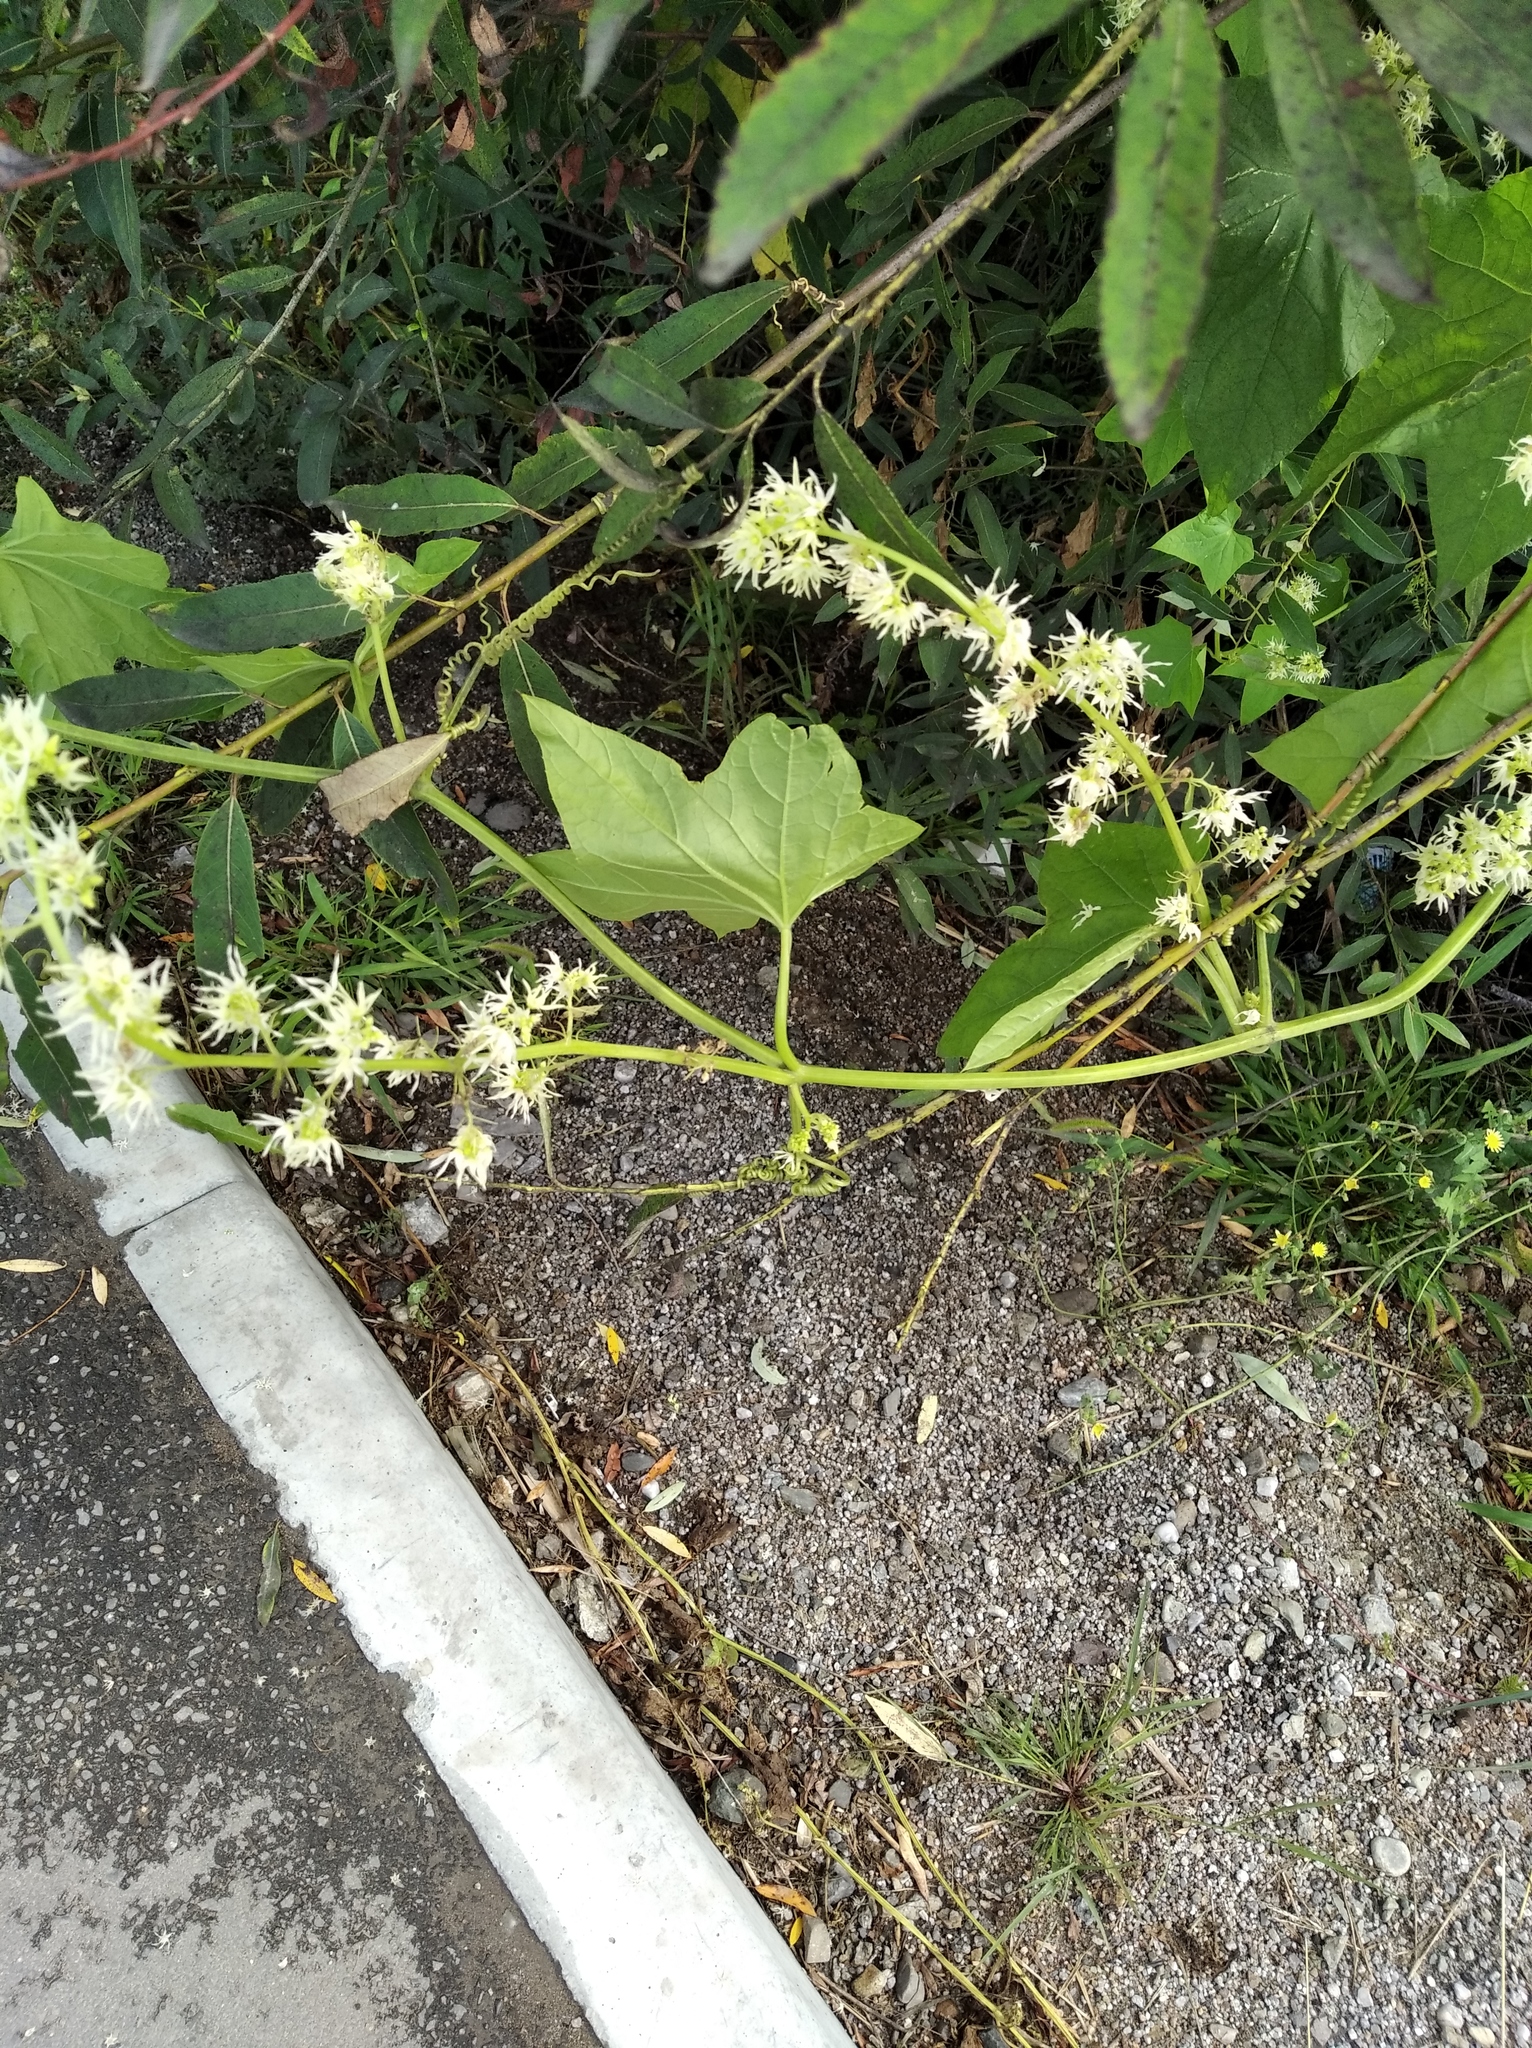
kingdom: Plantae
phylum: Tracheophyta
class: Magnoliopsida
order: Cucurbitales
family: Cucurbitaceae
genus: Echinocystis
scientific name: Echinocystis lobata
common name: Wild cucumber
